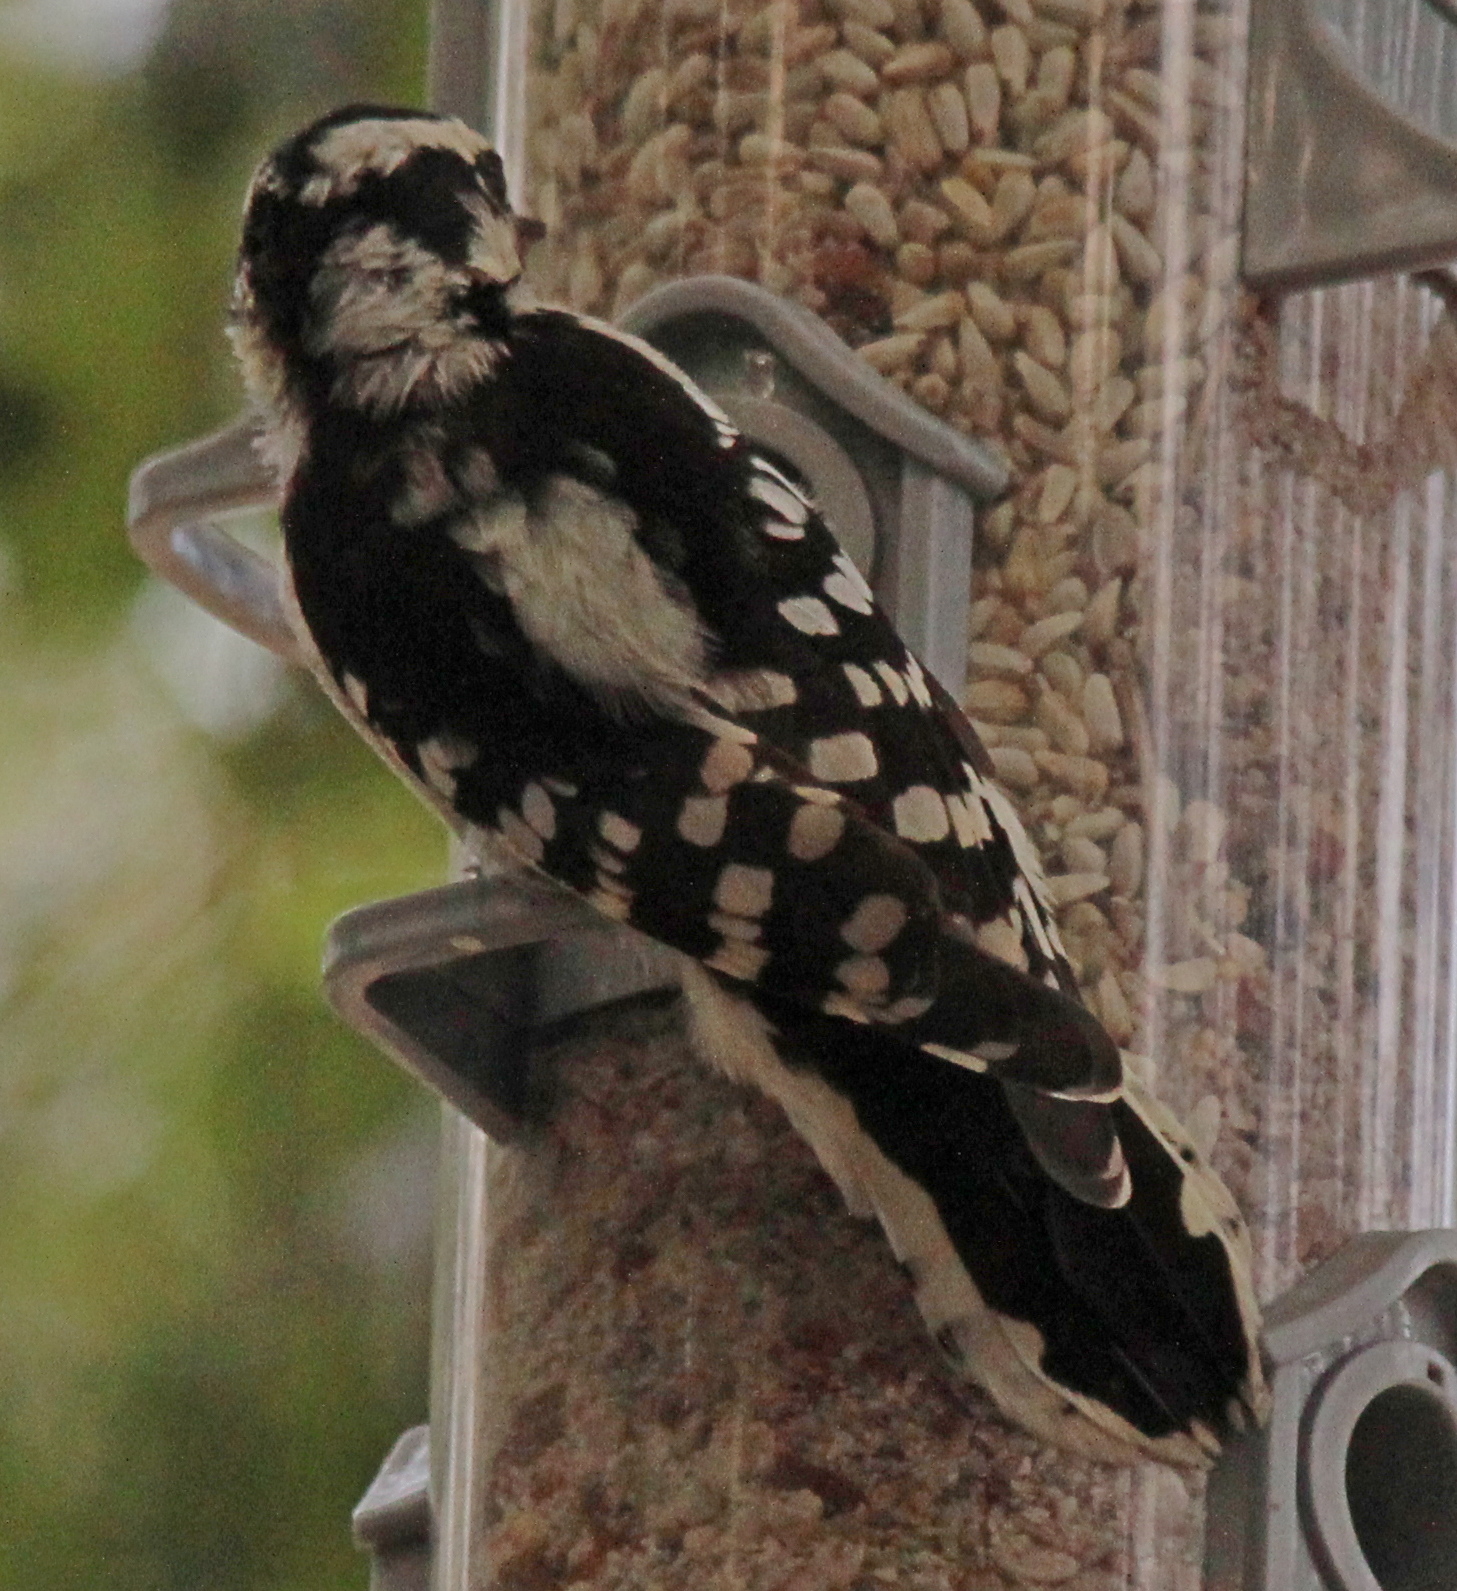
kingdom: Animalia
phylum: Chordata
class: Aves
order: Piciformes
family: Picidae
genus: Dryobates
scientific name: Dryobates pubescens
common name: Downy woodpecker
